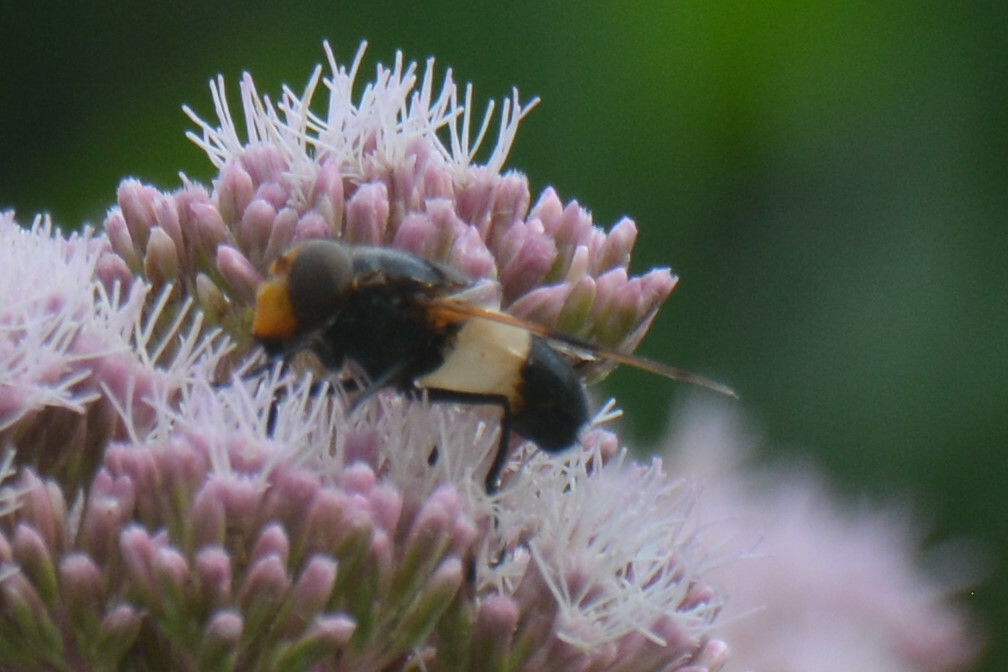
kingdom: Animalia
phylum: Arthropoda
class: Insecta
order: Diptera
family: Syrphidae
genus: Volucella
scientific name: Volucella pellucens
